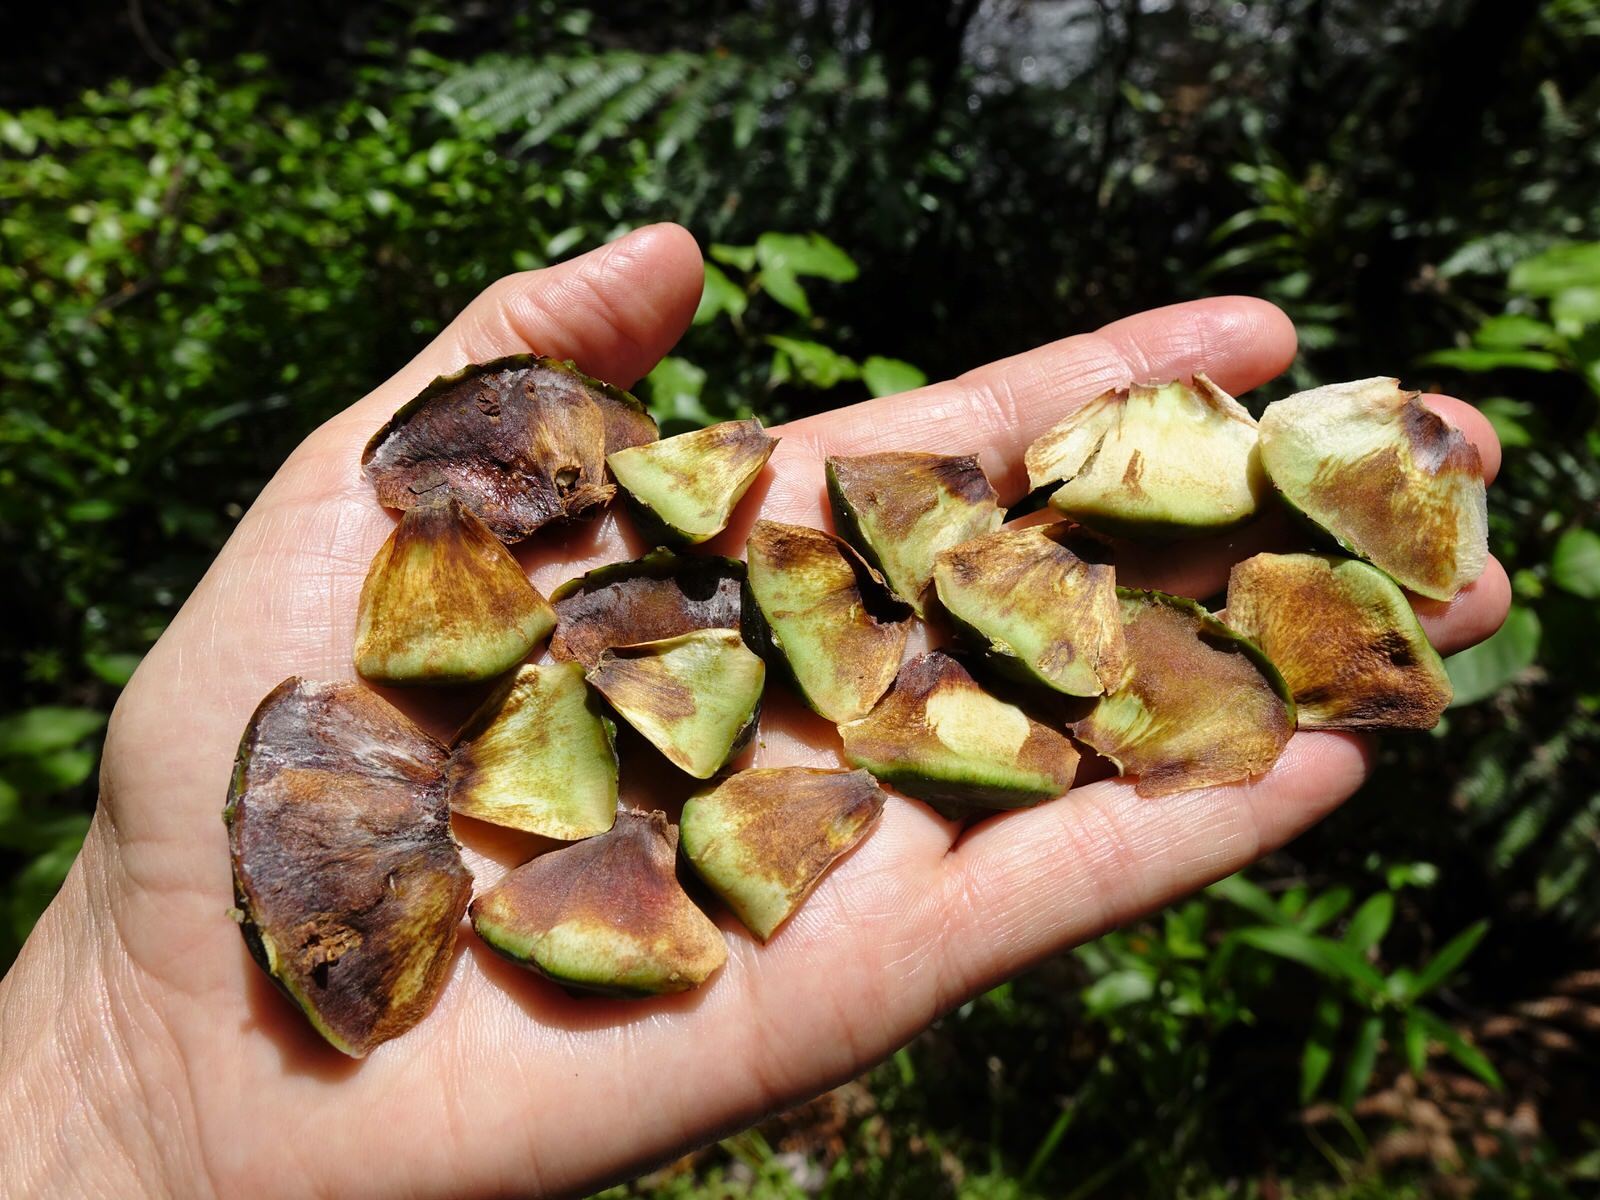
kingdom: Plantae
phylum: Tracheophyta
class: Pinopsida
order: Pinales
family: Araucariaceae
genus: Agathis
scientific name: Agathis australis
